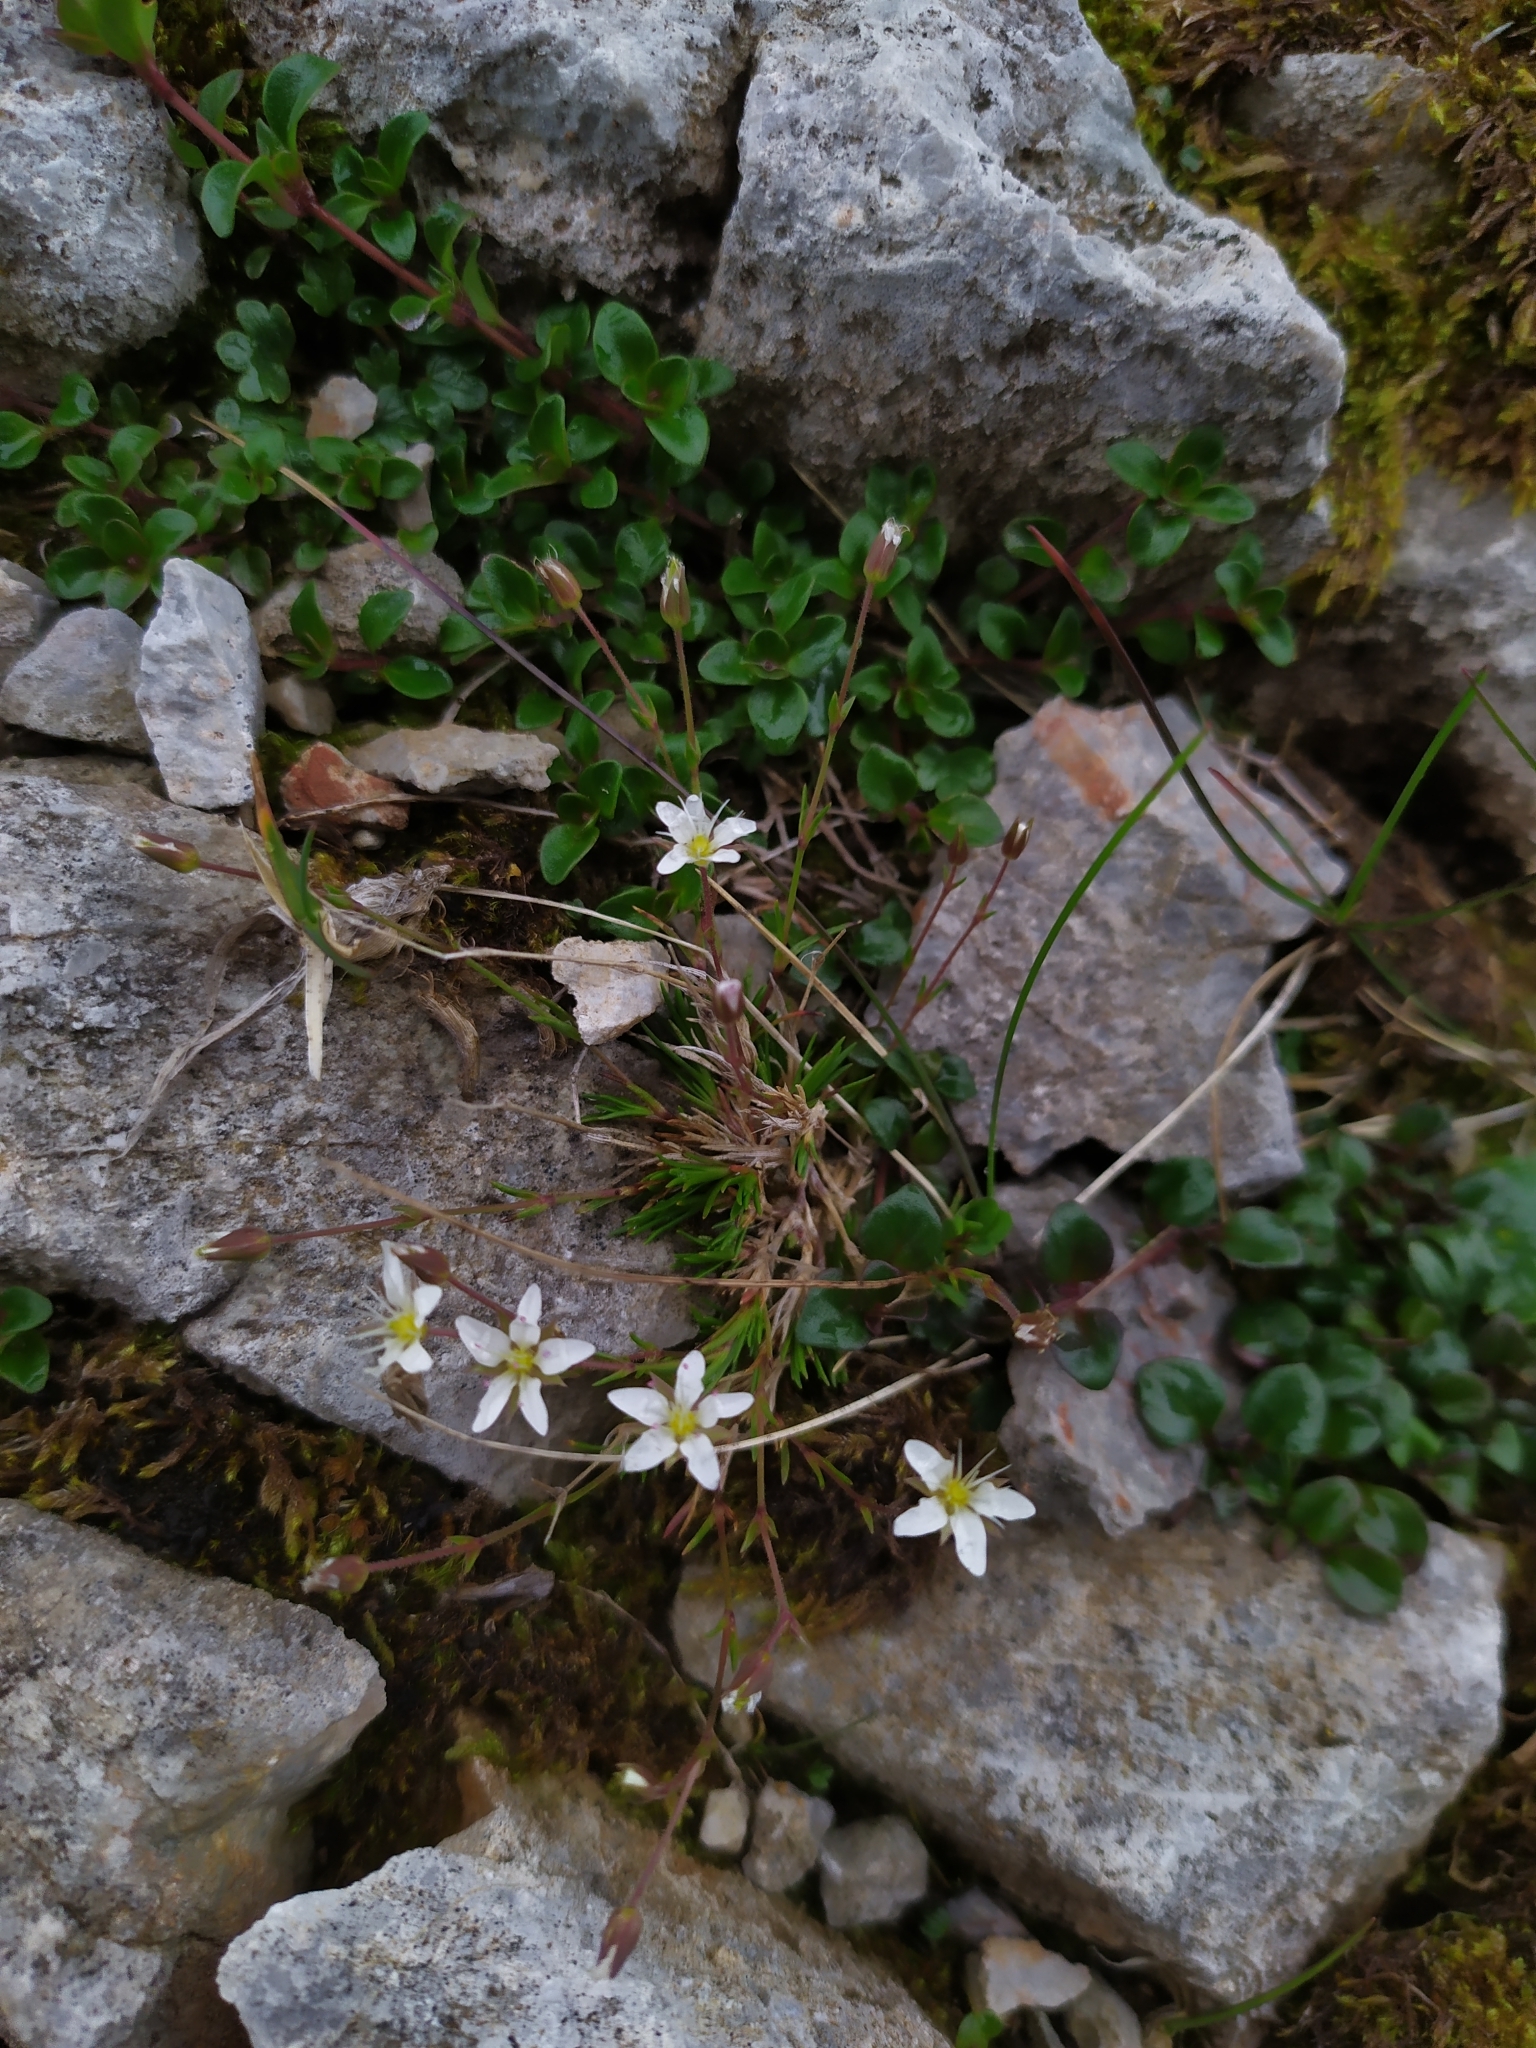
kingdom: Plantae
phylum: Tracheophyta
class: Magnoliopsida
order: Caryophyllales
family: Caryophyllaceae
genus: Sabulina
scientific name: Sabulina verna
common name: Spring sandwort
